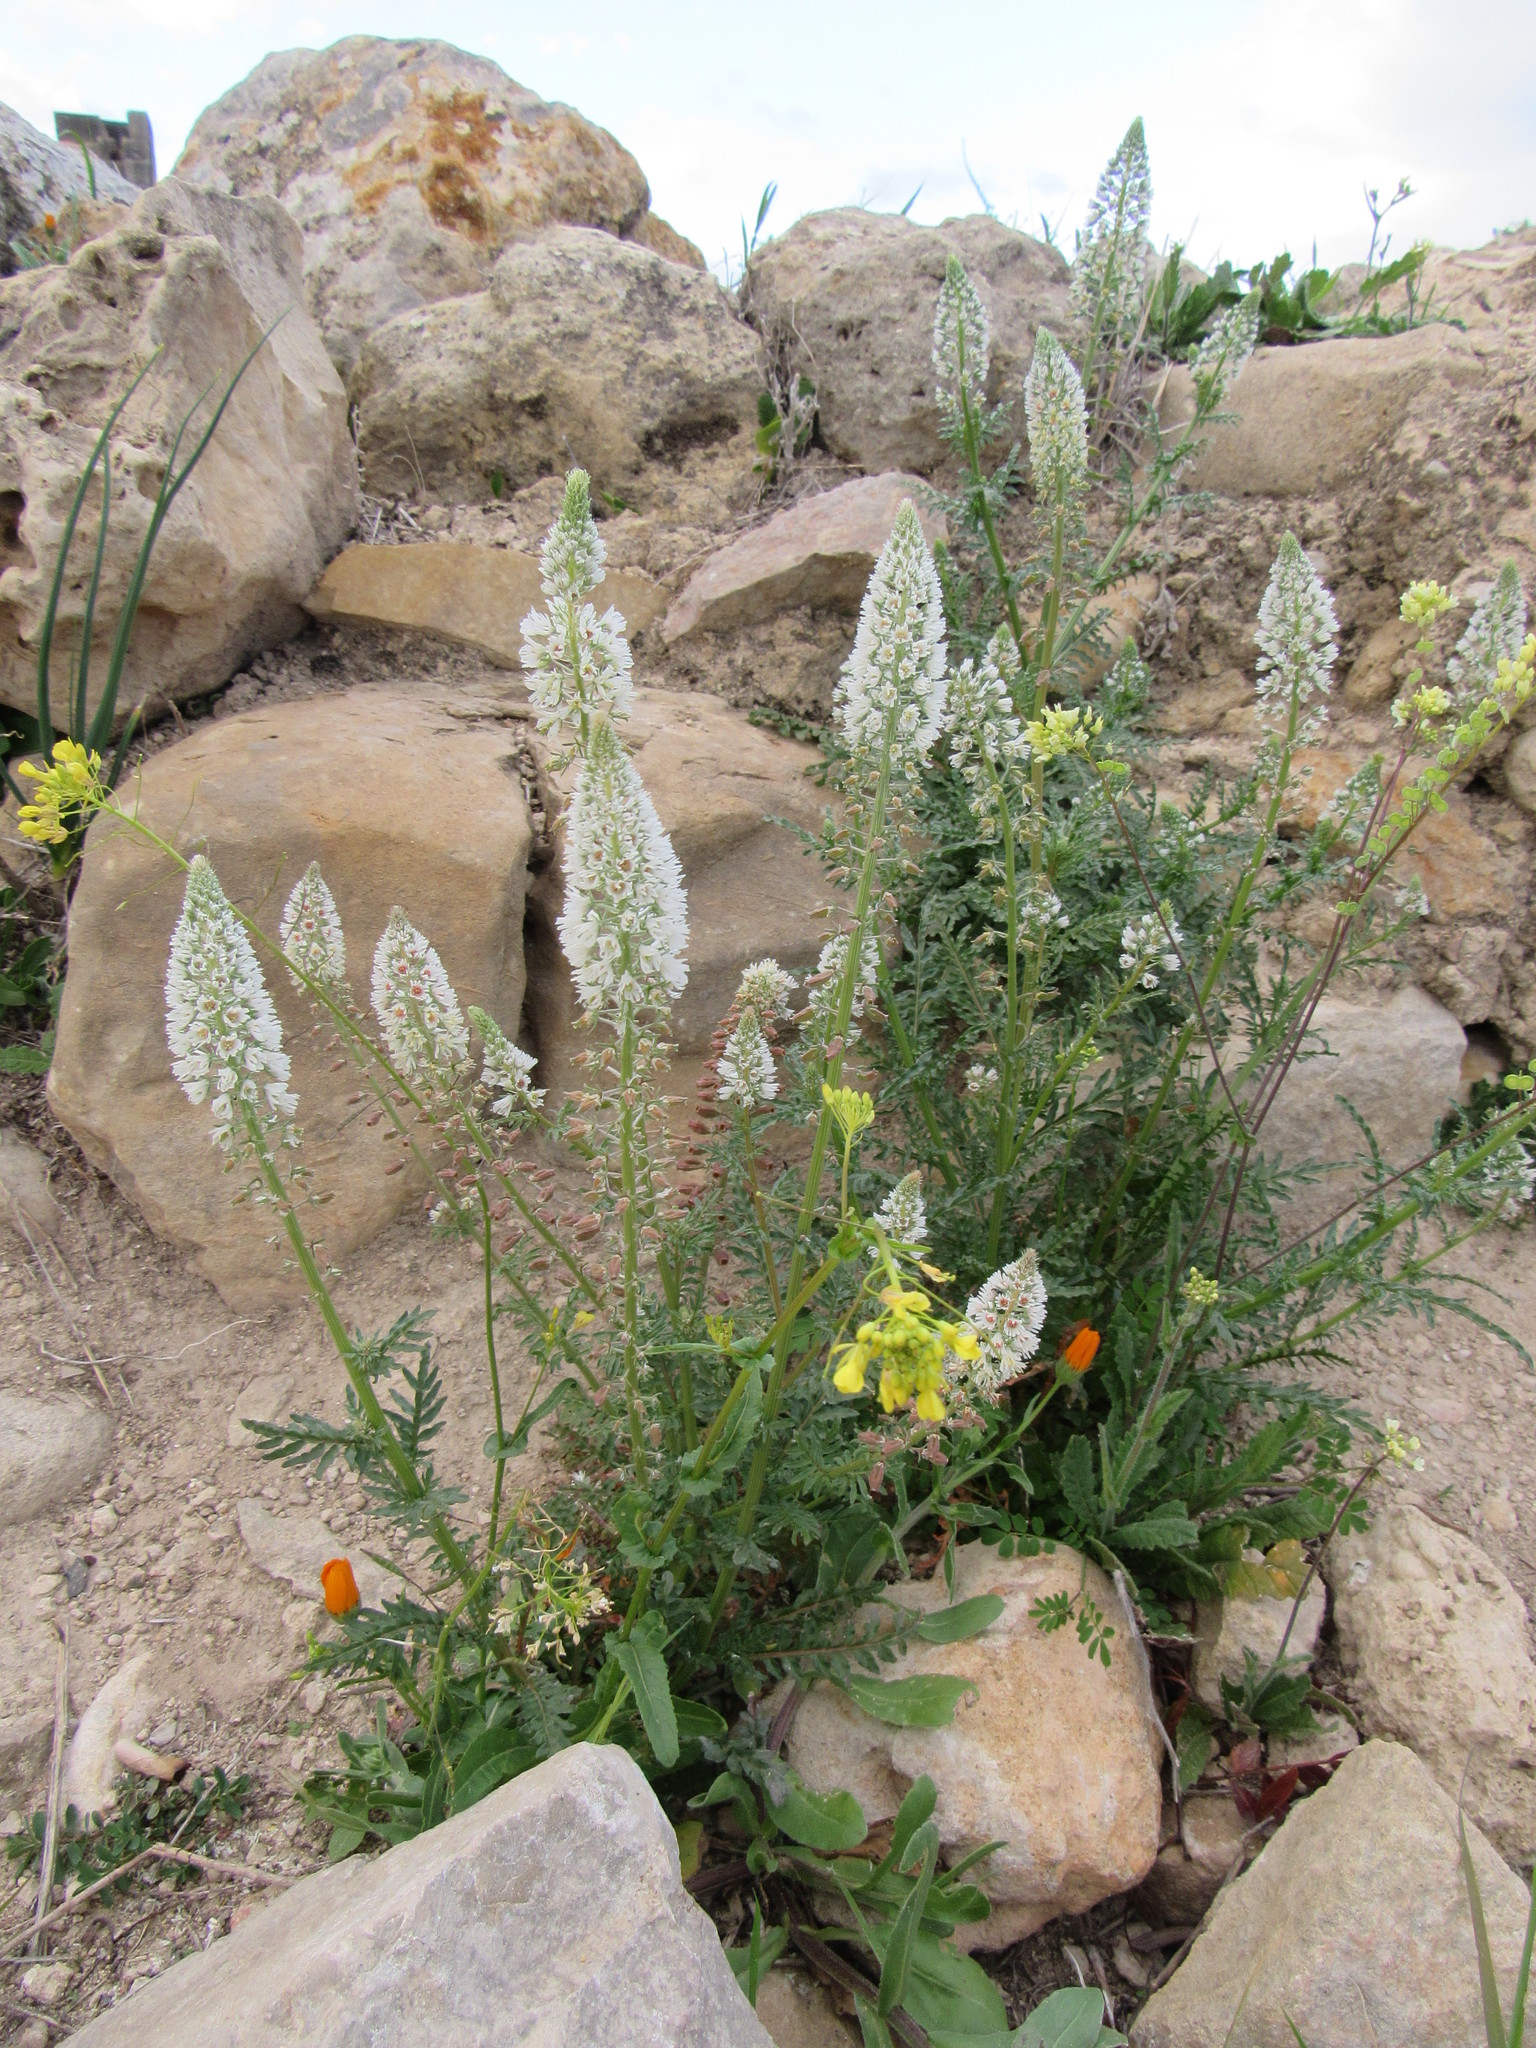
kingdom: Plantae
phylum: Tracheophyta
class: Magnoliopsida
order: Brassicales
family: Resedaceae
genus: Reseda
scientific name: Reseda alba
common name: White mignonette
